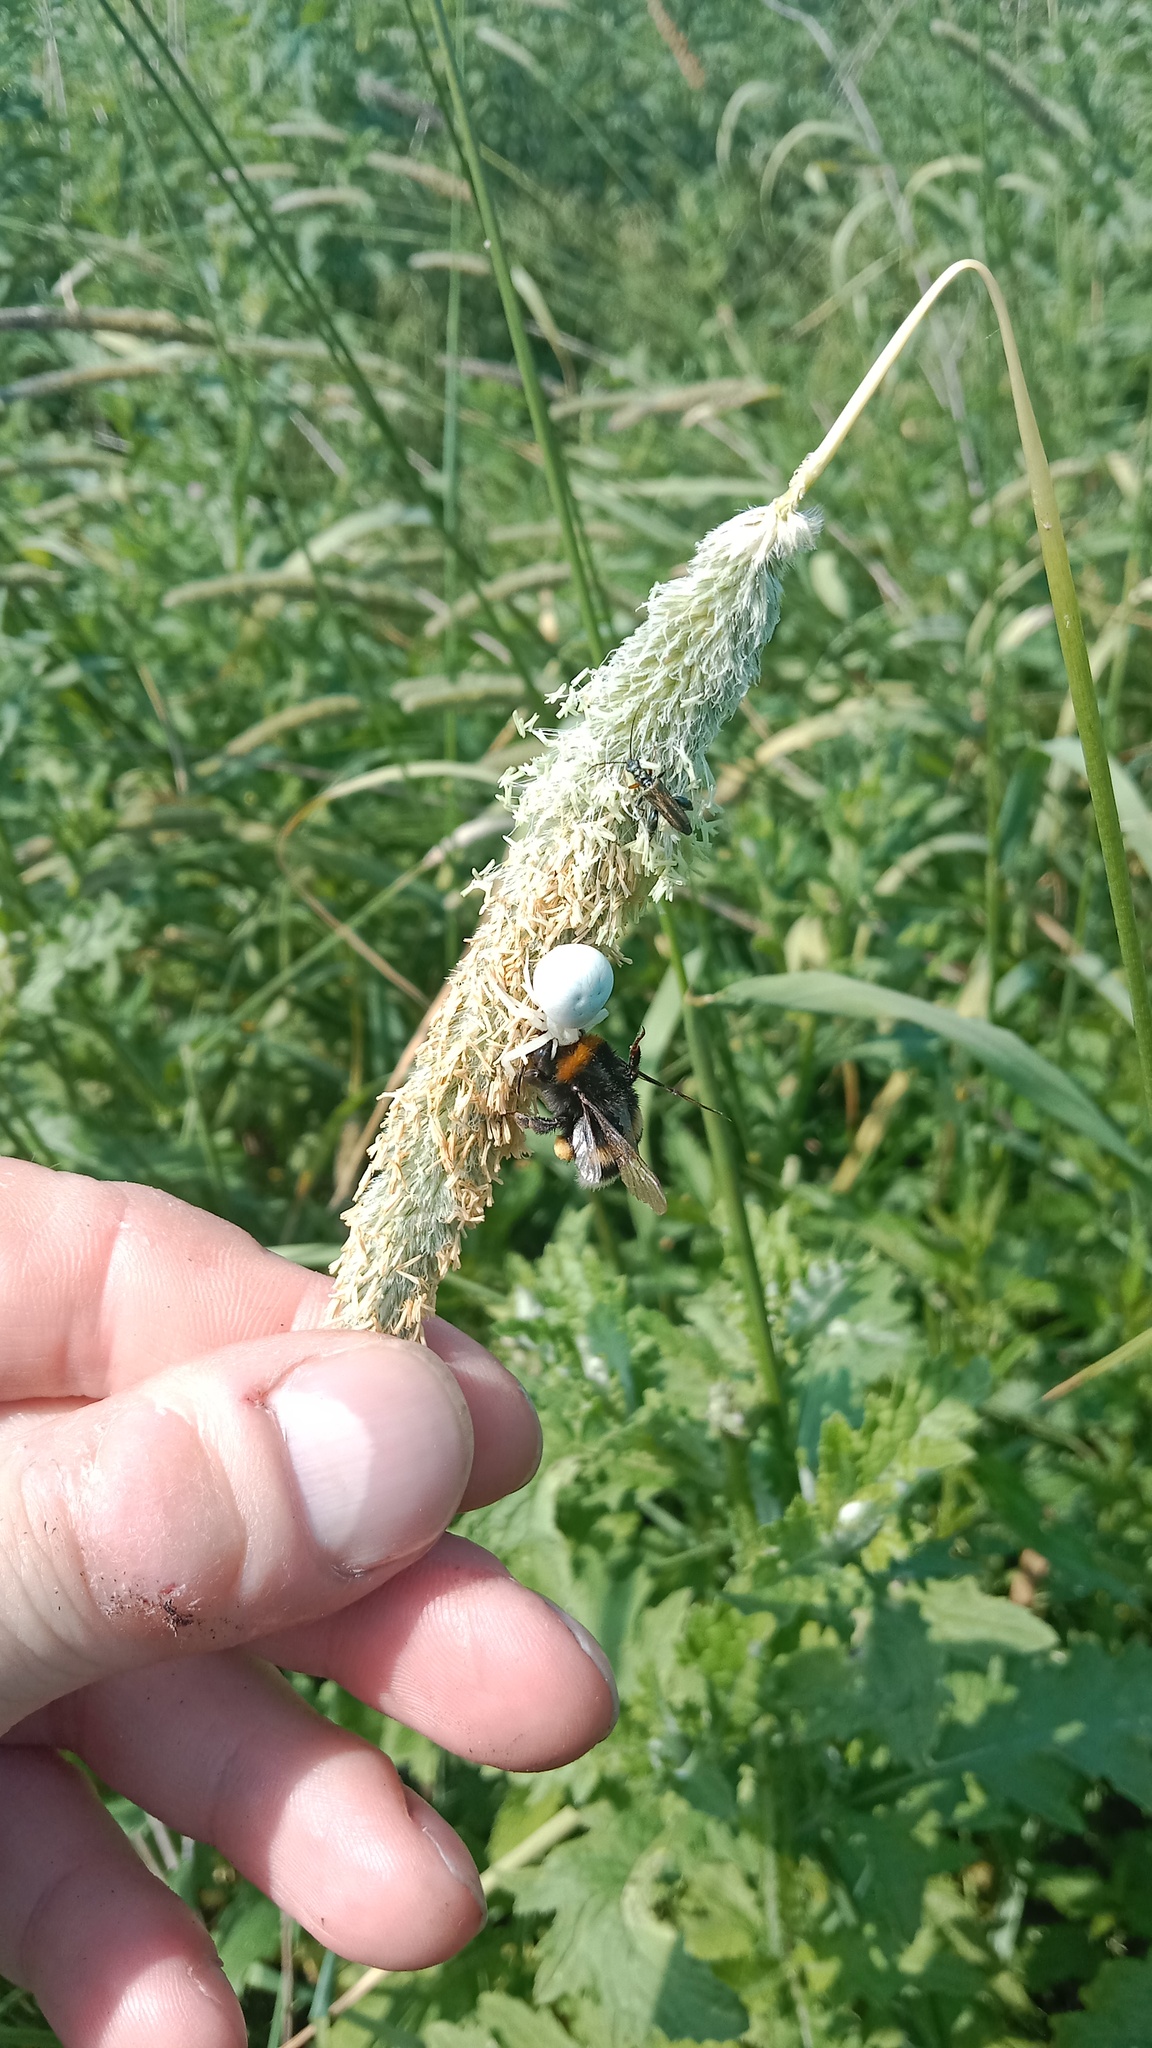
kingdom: Animalia
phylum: Arthropoda
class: Arachnida
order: Araneae
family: Thomisidae
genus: Misumena
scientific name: Misumena vatia
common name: Goldenrod crab spider
